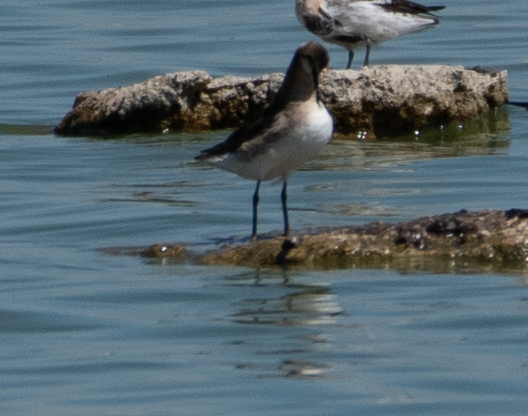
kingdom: Animalia
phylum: Chordata
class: Aves
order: Charadriiformes
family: Scolopacidae
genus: Phalaropus
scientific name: Phalaropus tricolor
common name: Wilson's phalarope
